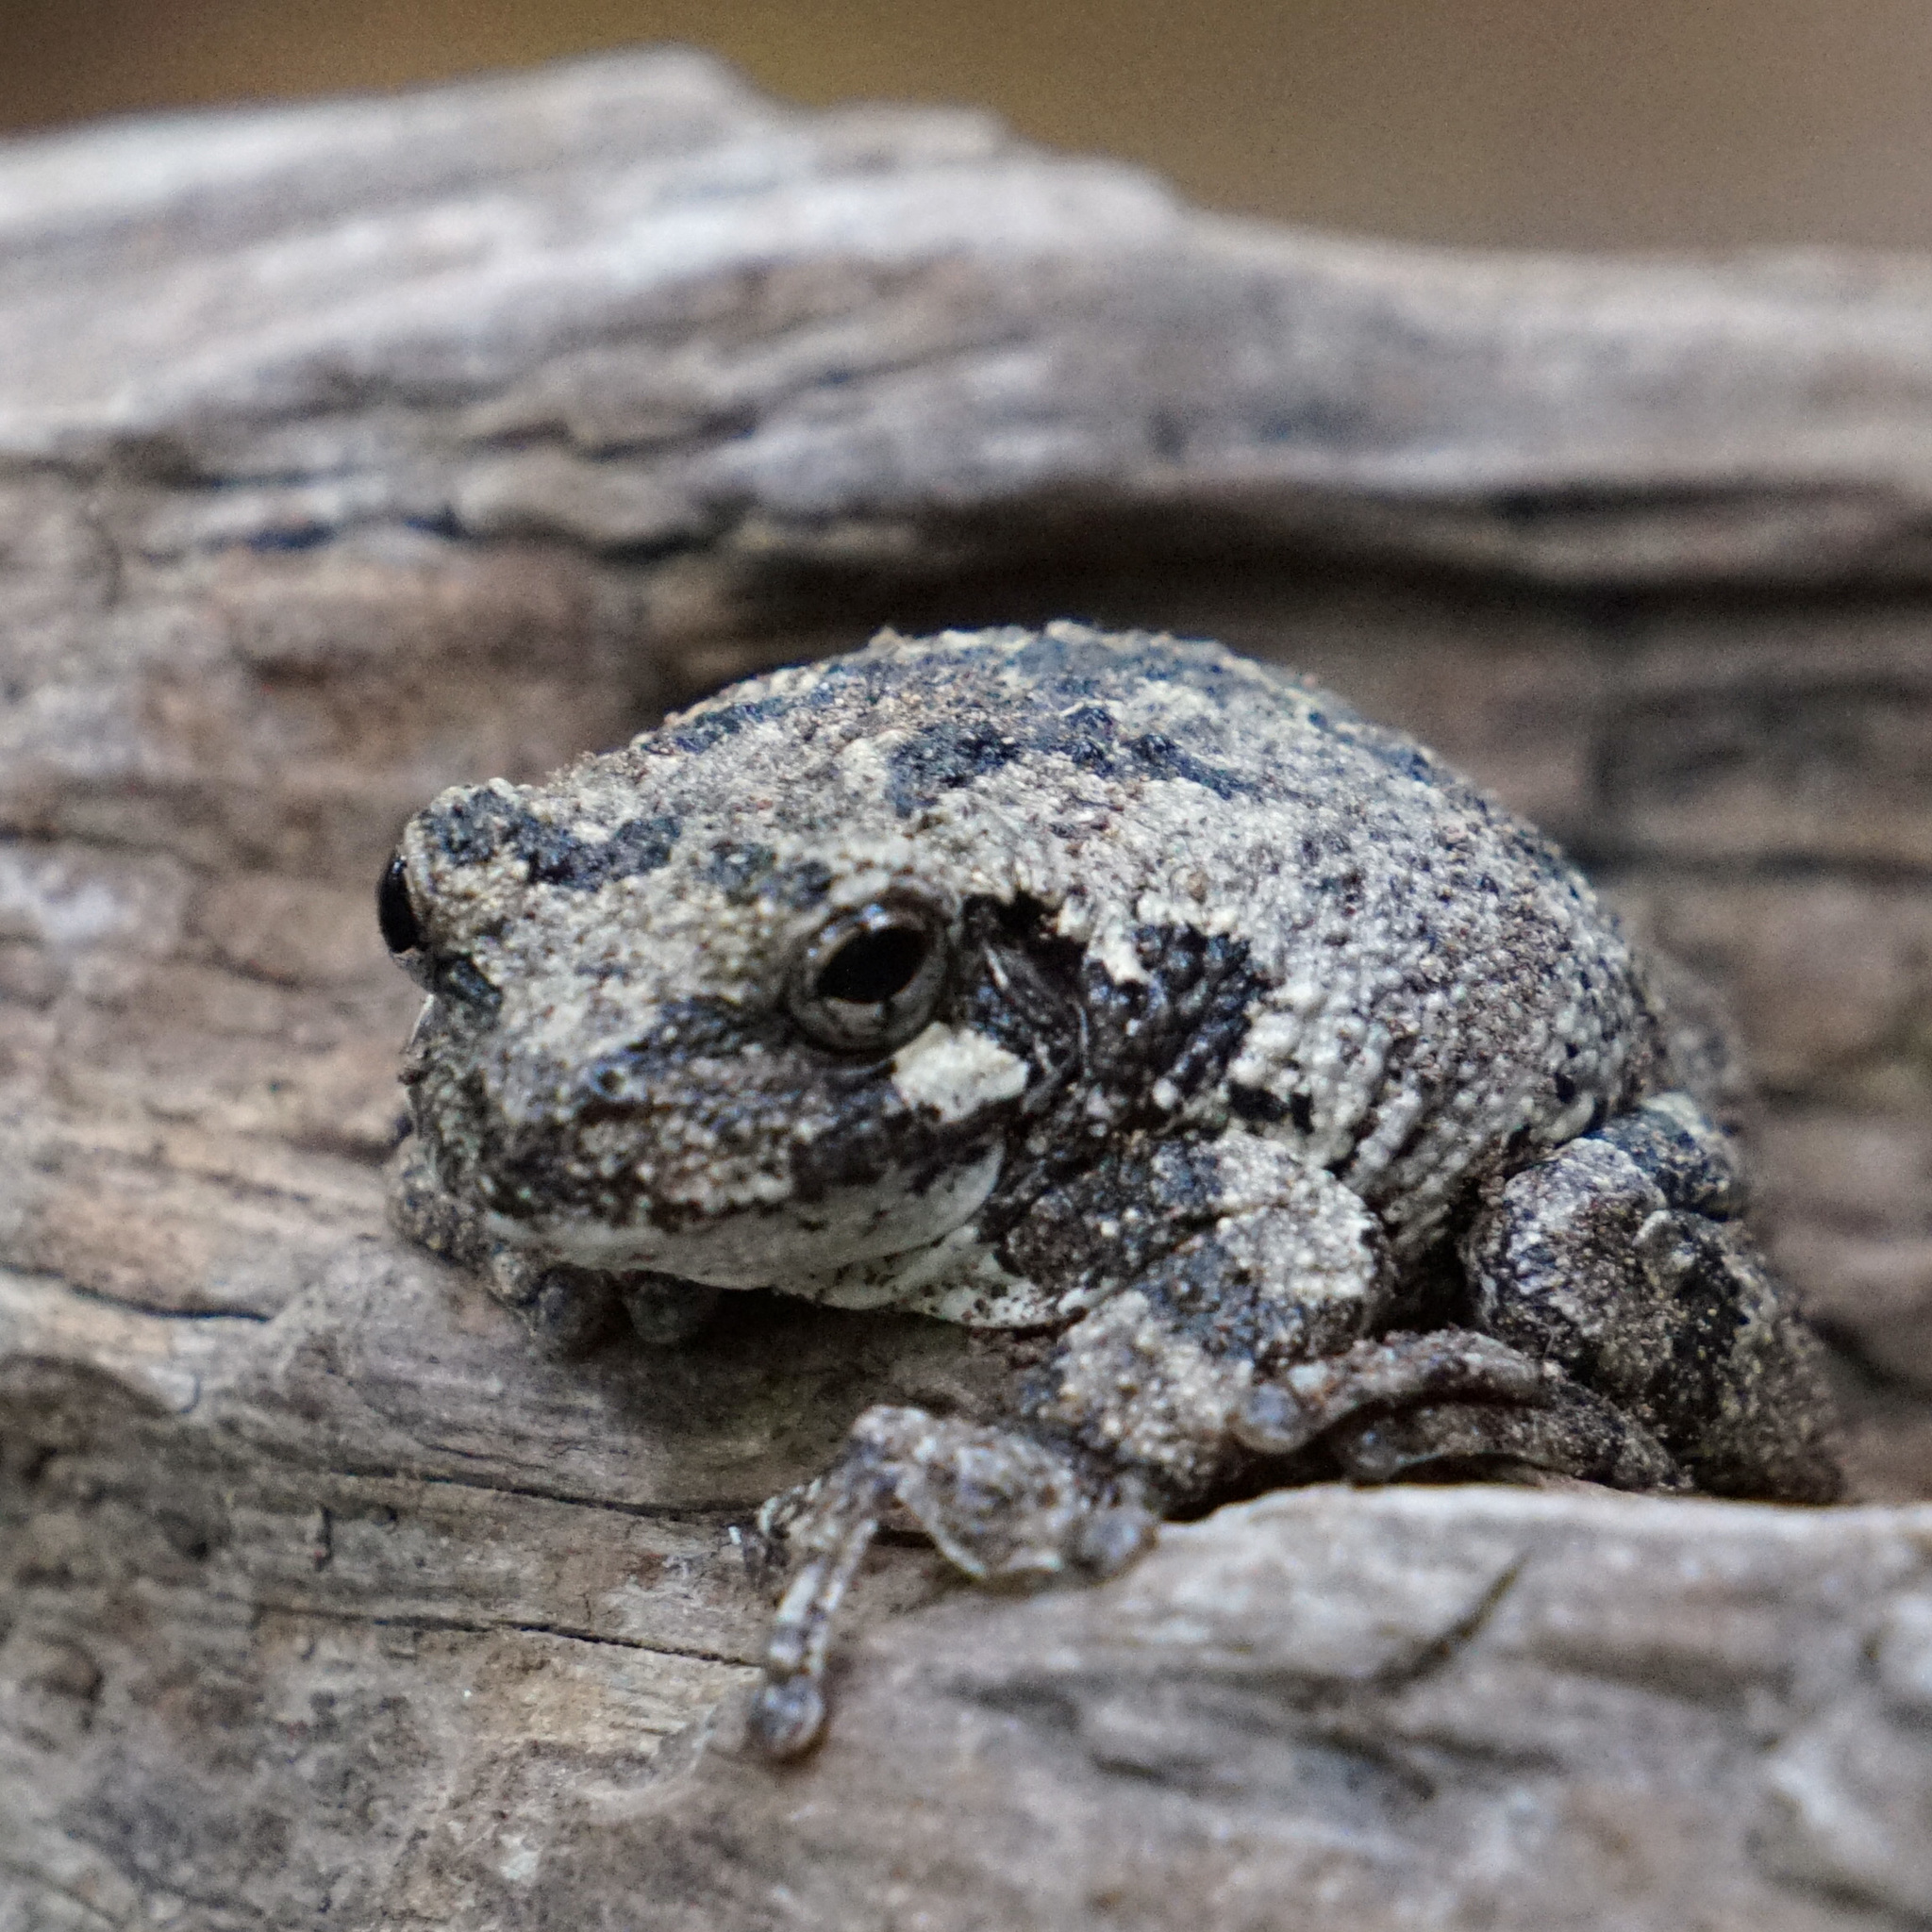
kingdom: Animalia
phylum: Chordata
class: Amphibia
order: Anura
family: Hylidae
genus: Dryophytes
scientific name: Dryophytes chrysoscelis
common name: Cope's gray treefrog
